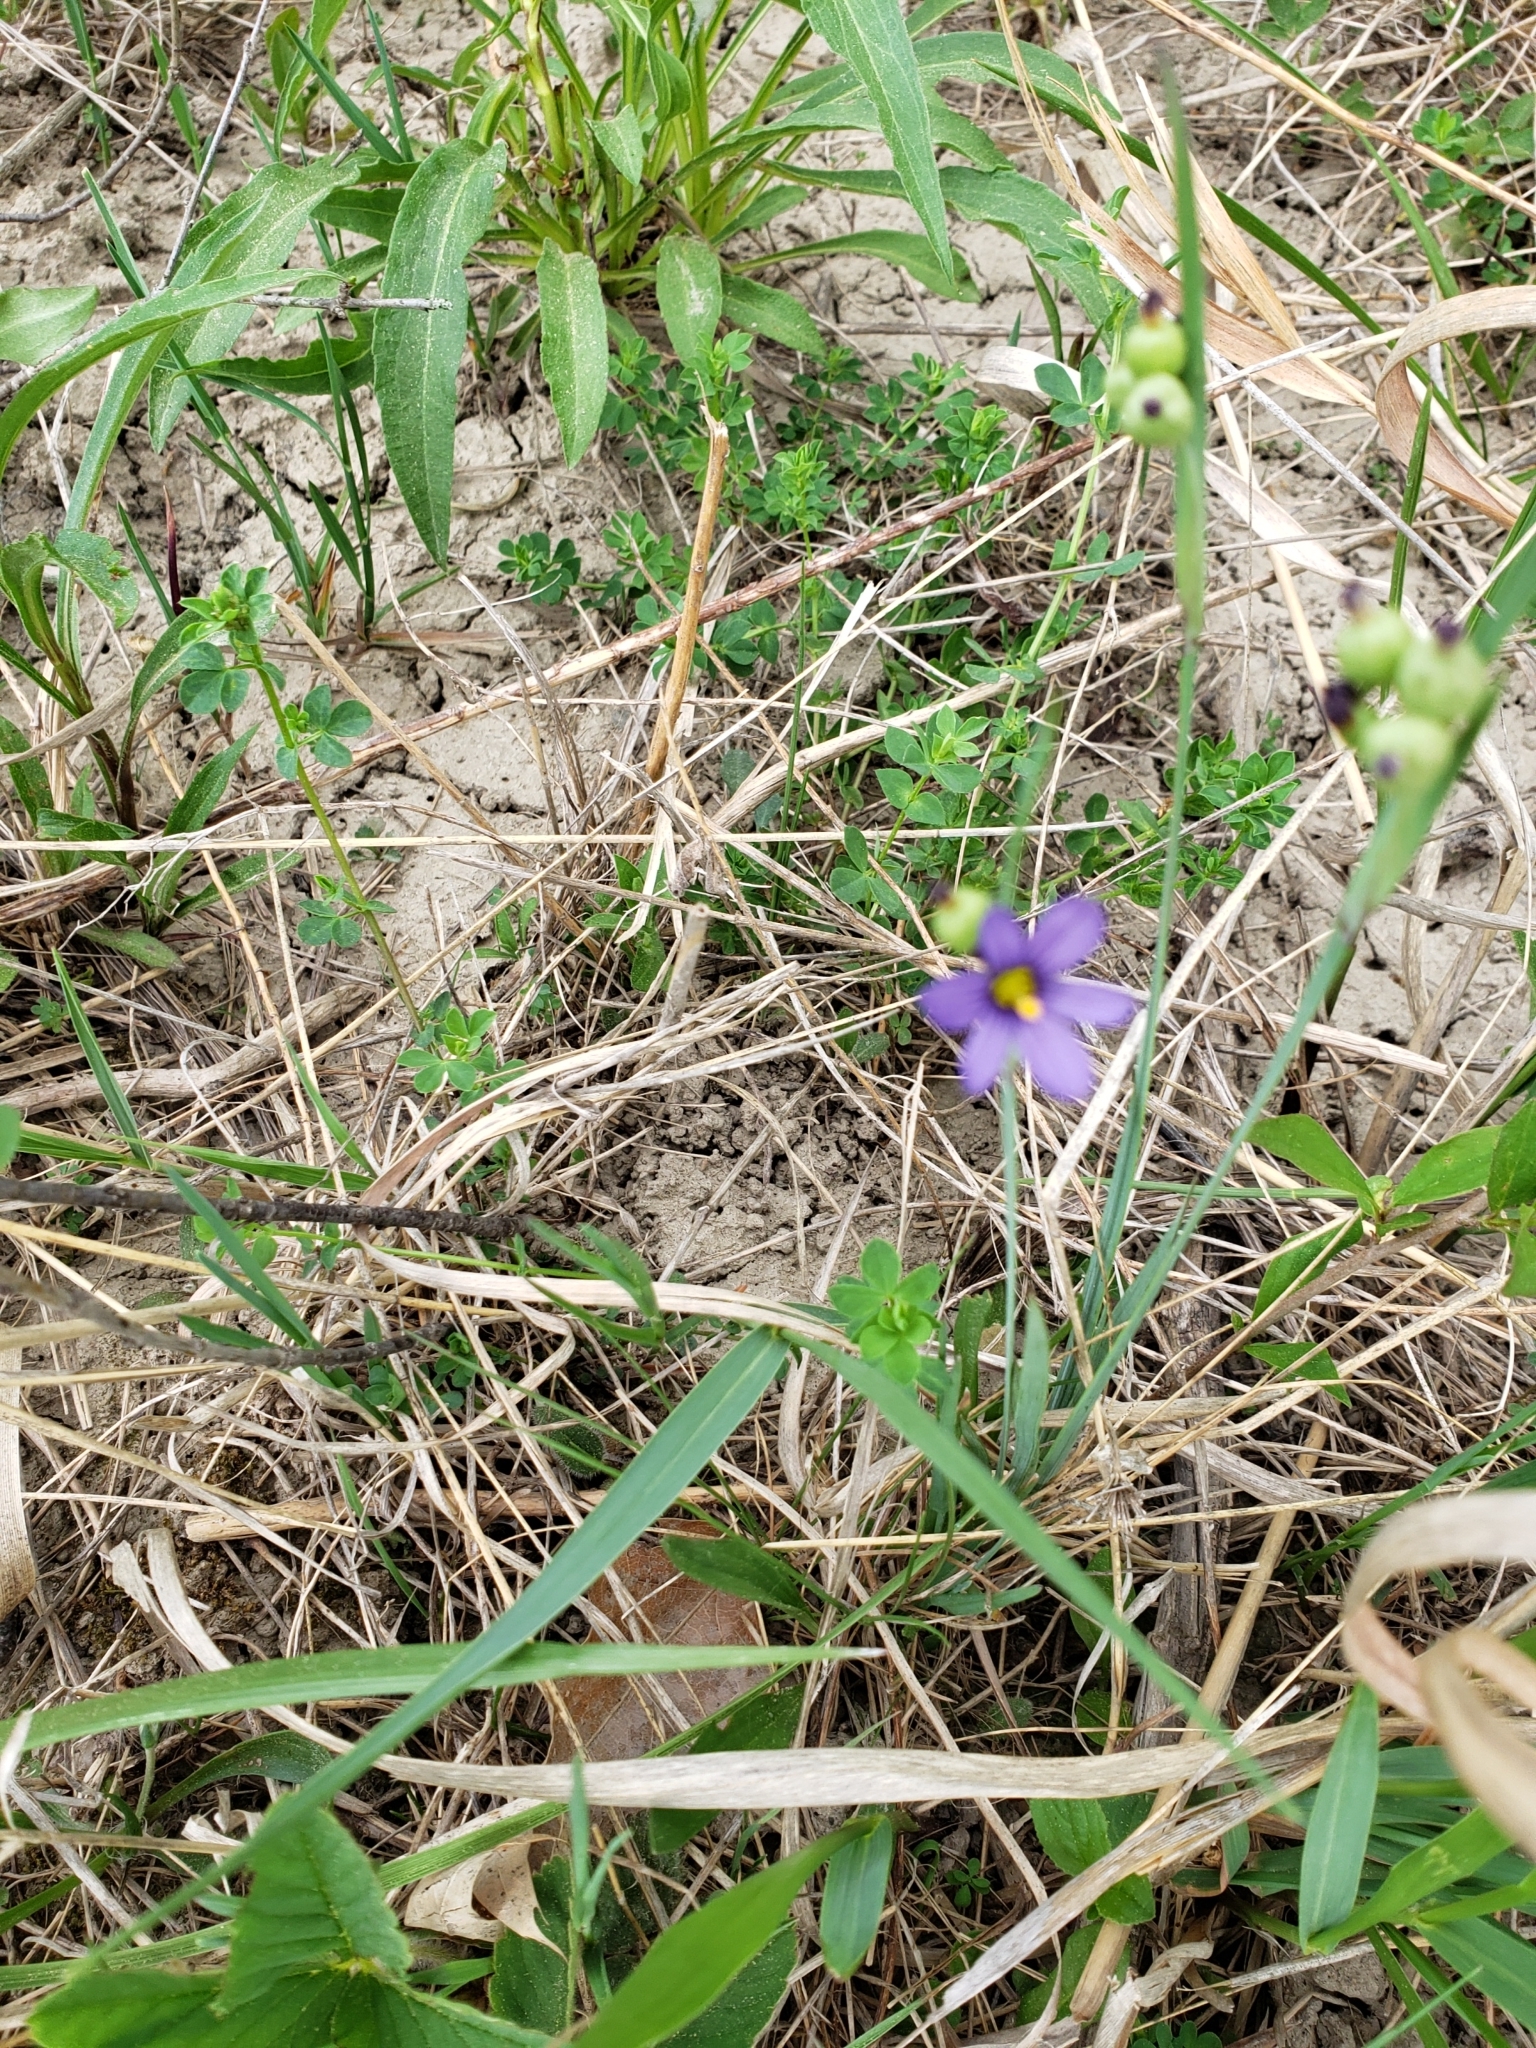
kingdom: Plantae
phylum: Tracheophyta
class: Liliopsida
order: Asparagales
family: Iridaceae
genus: Sisyrinchium
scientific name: Sisyrinchium montanum
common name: American blue-eyed-grass
